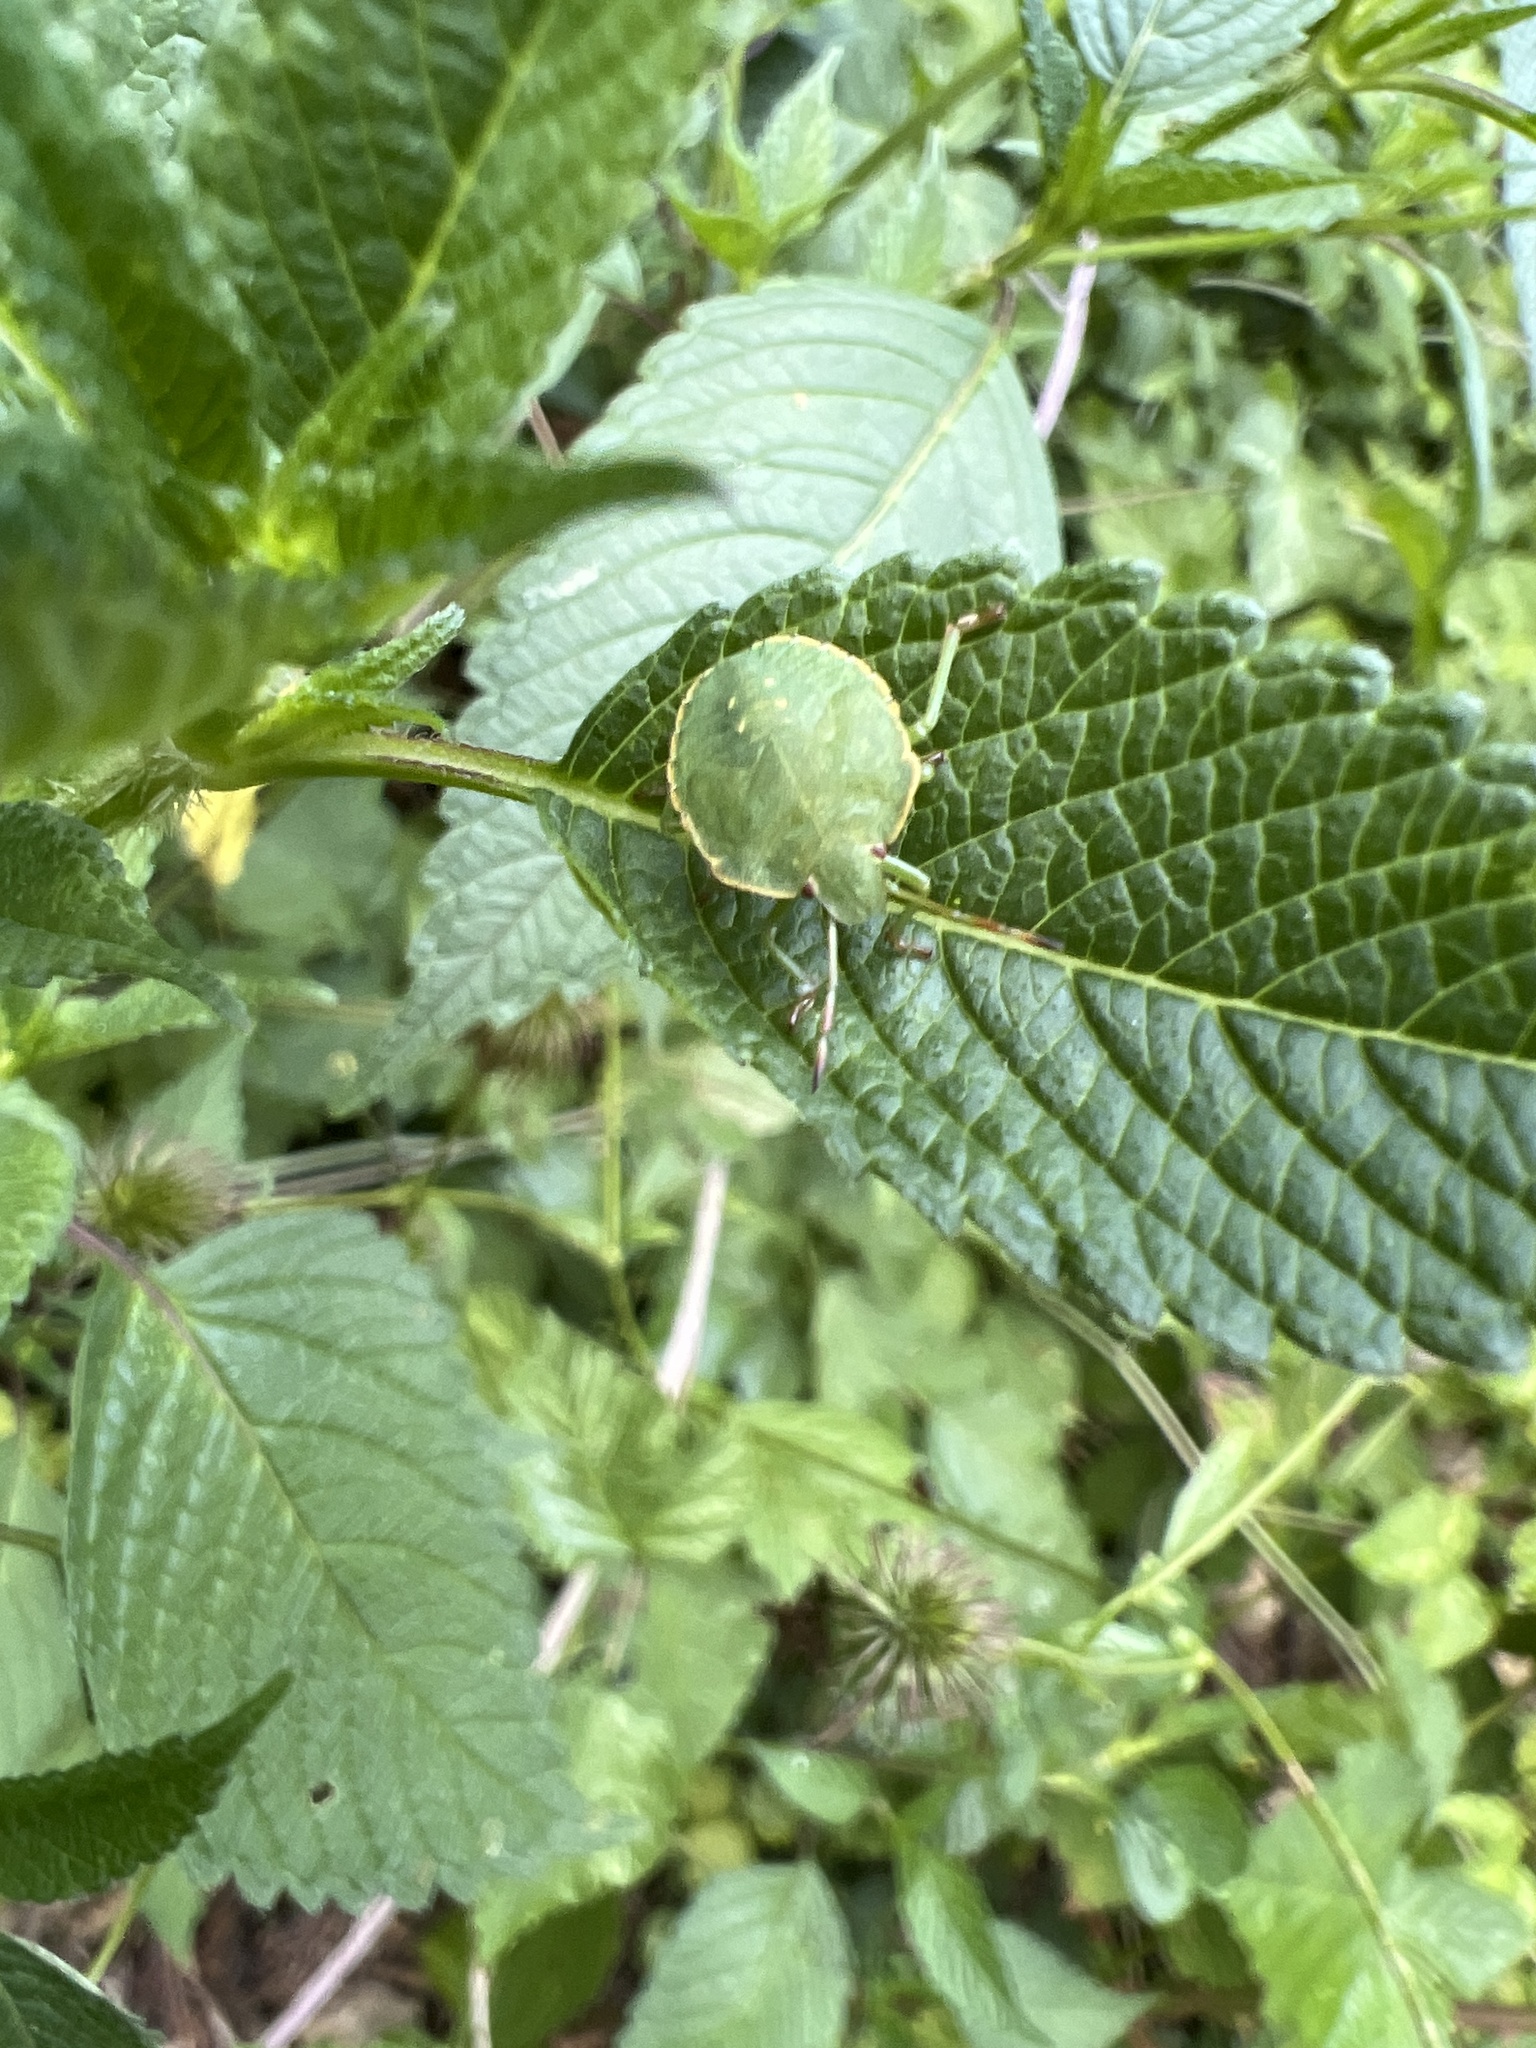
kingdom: Animalia
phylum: Arthropoda
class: Insecta
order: Hemiptera
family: Pentatomidae
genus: Palomena
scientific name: Palomena prasina
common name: Green shieldbug
